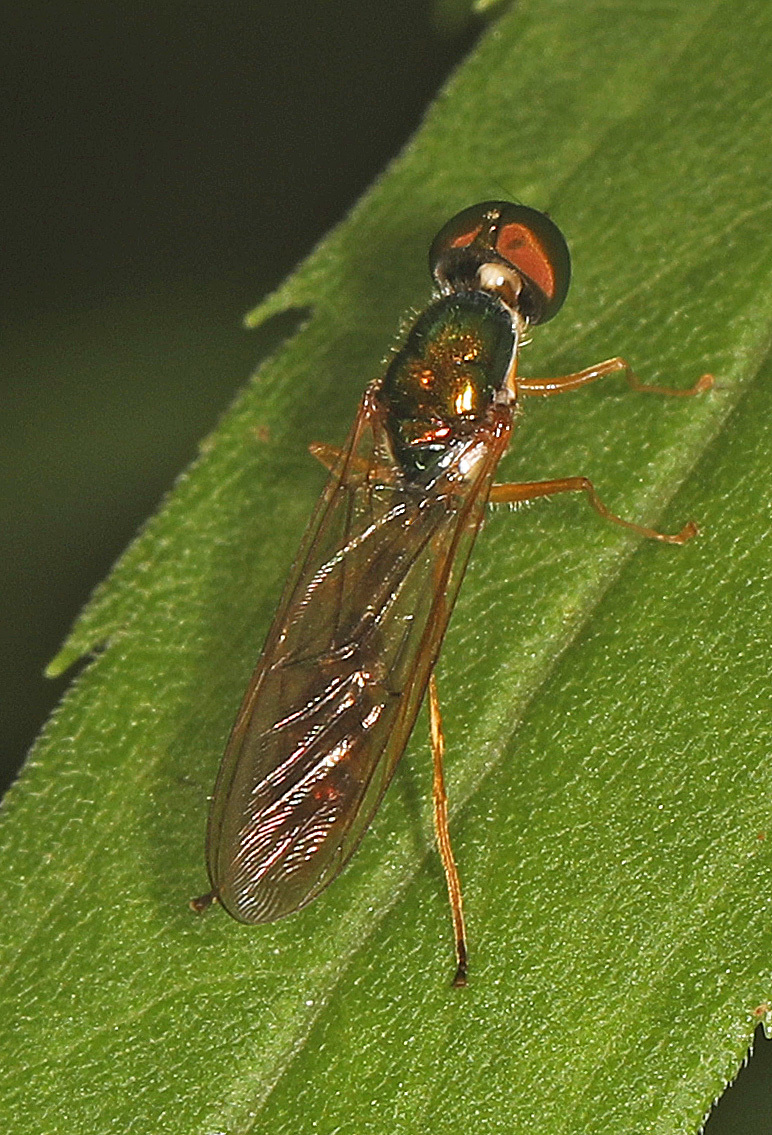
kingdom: Animalia
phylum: Arthropoda
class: Insecta
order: Diptera
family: Stratiomyidae
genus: Sargus
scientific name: Sargus fasciatus
